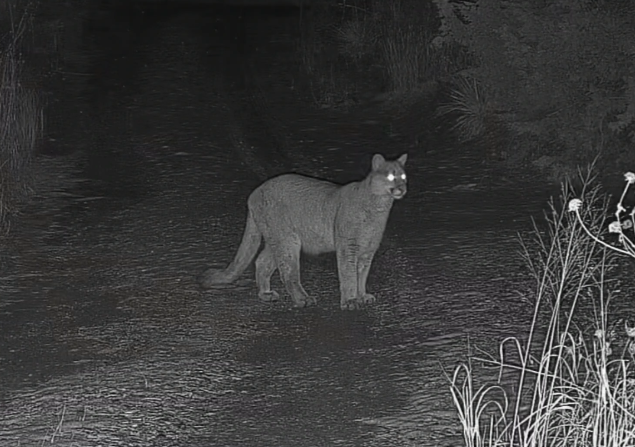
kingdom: Animalia
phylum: Chordata
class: Mammalia
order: Carnivora
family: Felidae
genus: Puma
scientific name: Puma concolor
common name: Puma
